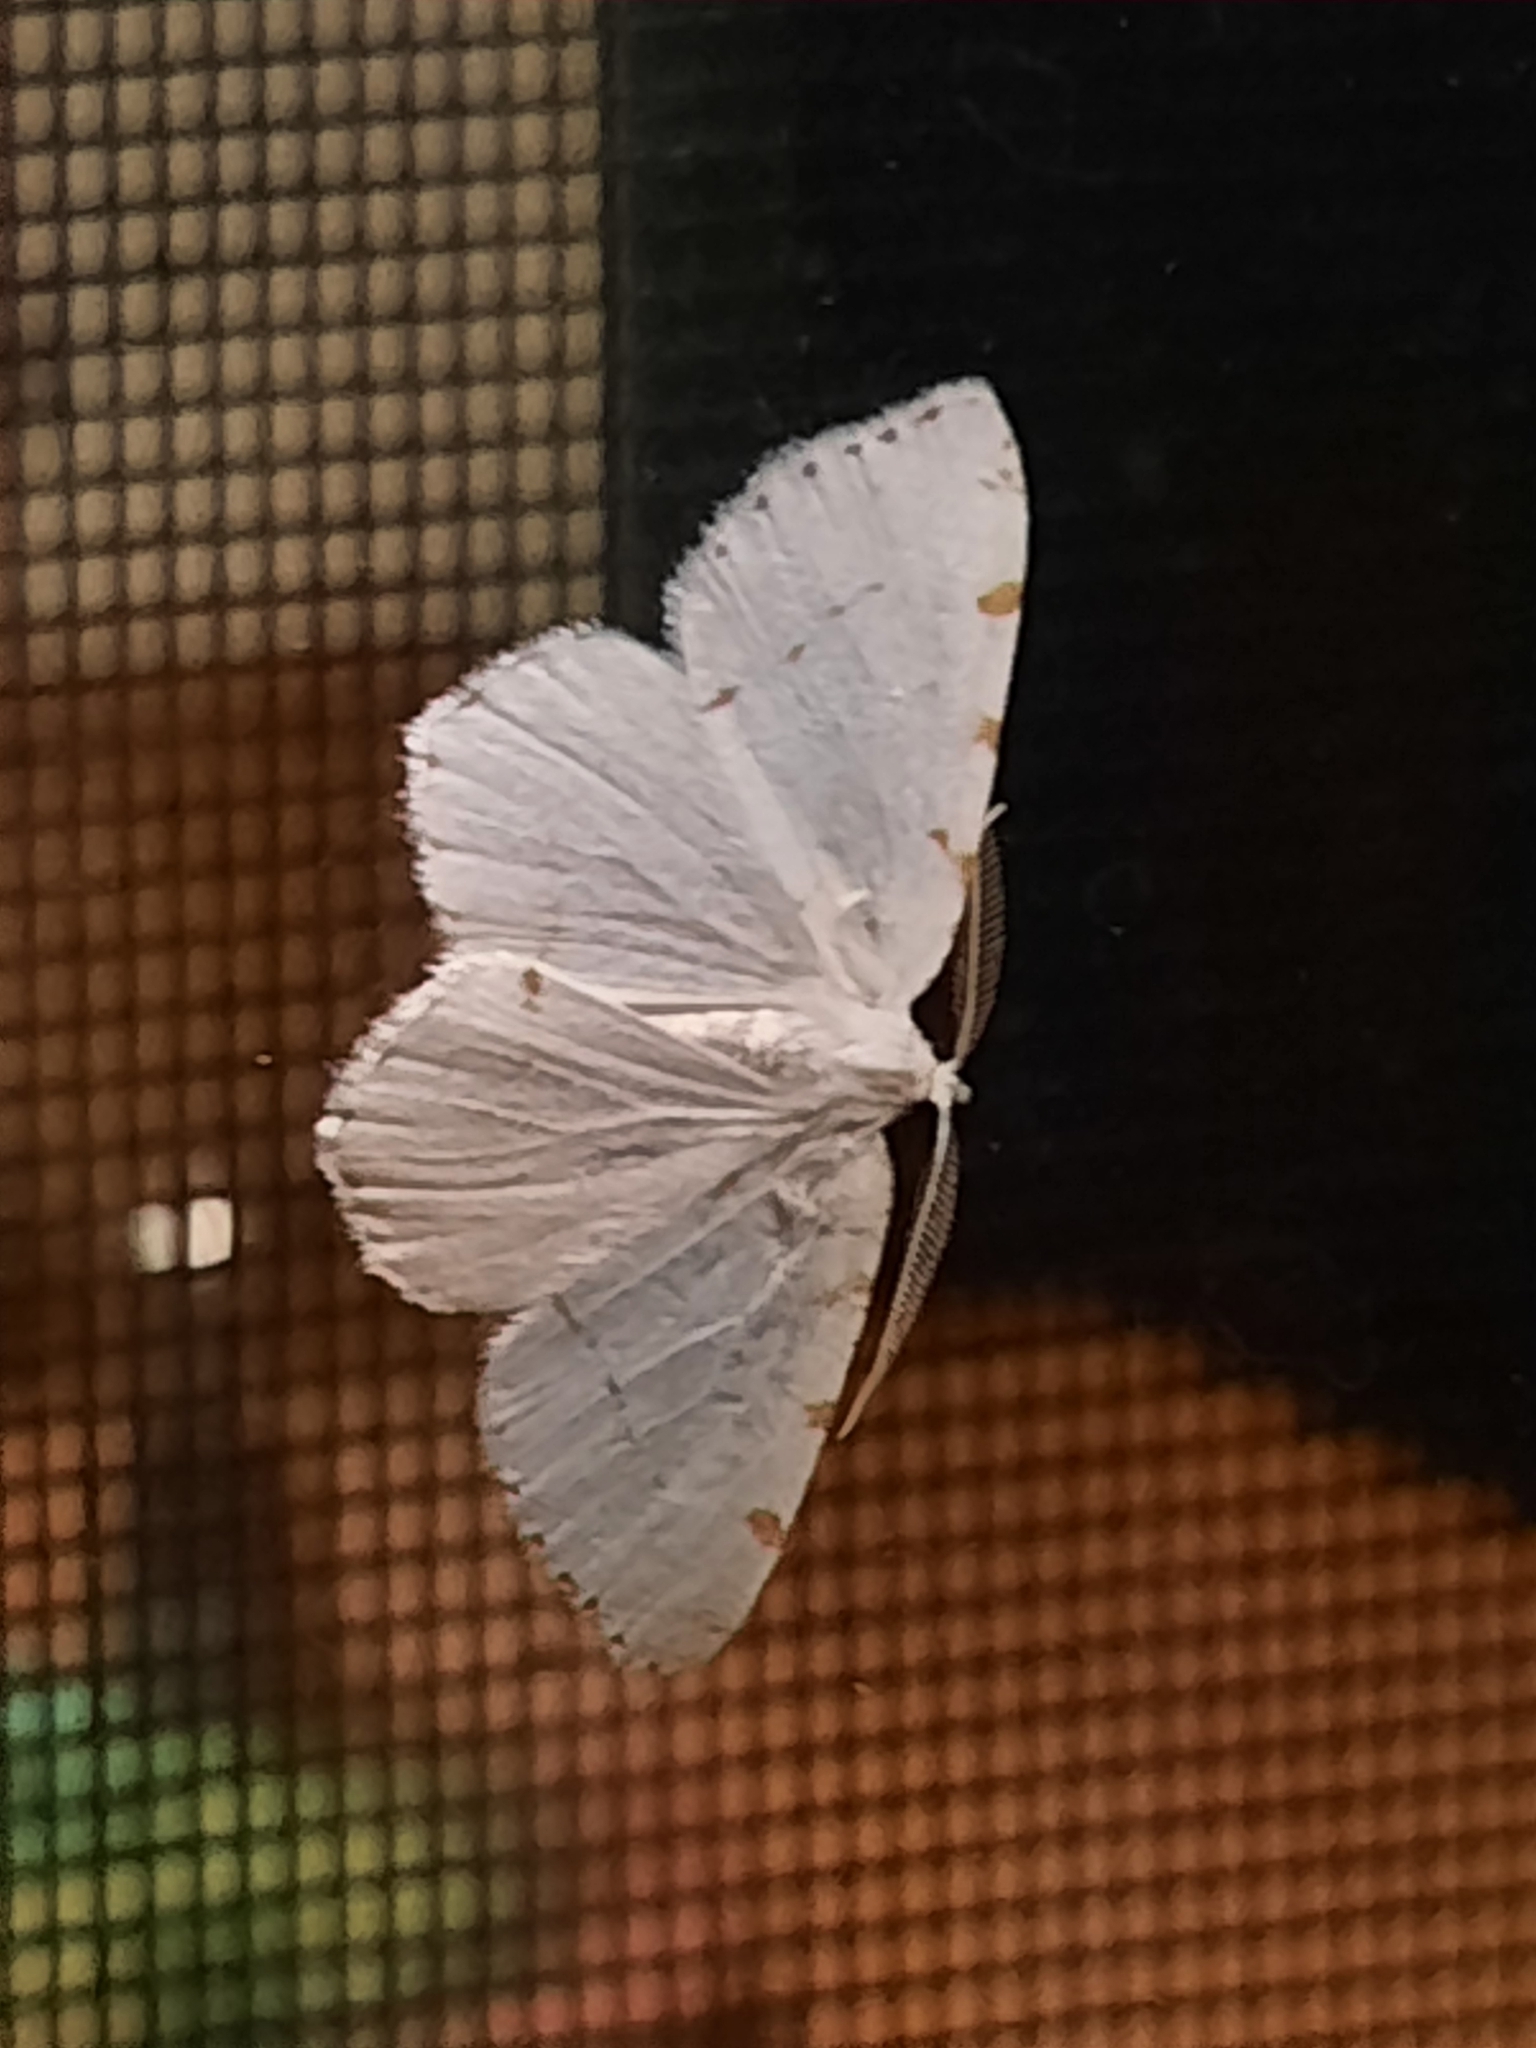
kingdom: Animalia
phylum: Arthropoda
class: Insecta
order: Lepidoptera
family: Geometridae
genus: Macaria
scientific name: Macaria pustularia
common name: Lesser maple spanworm moth
